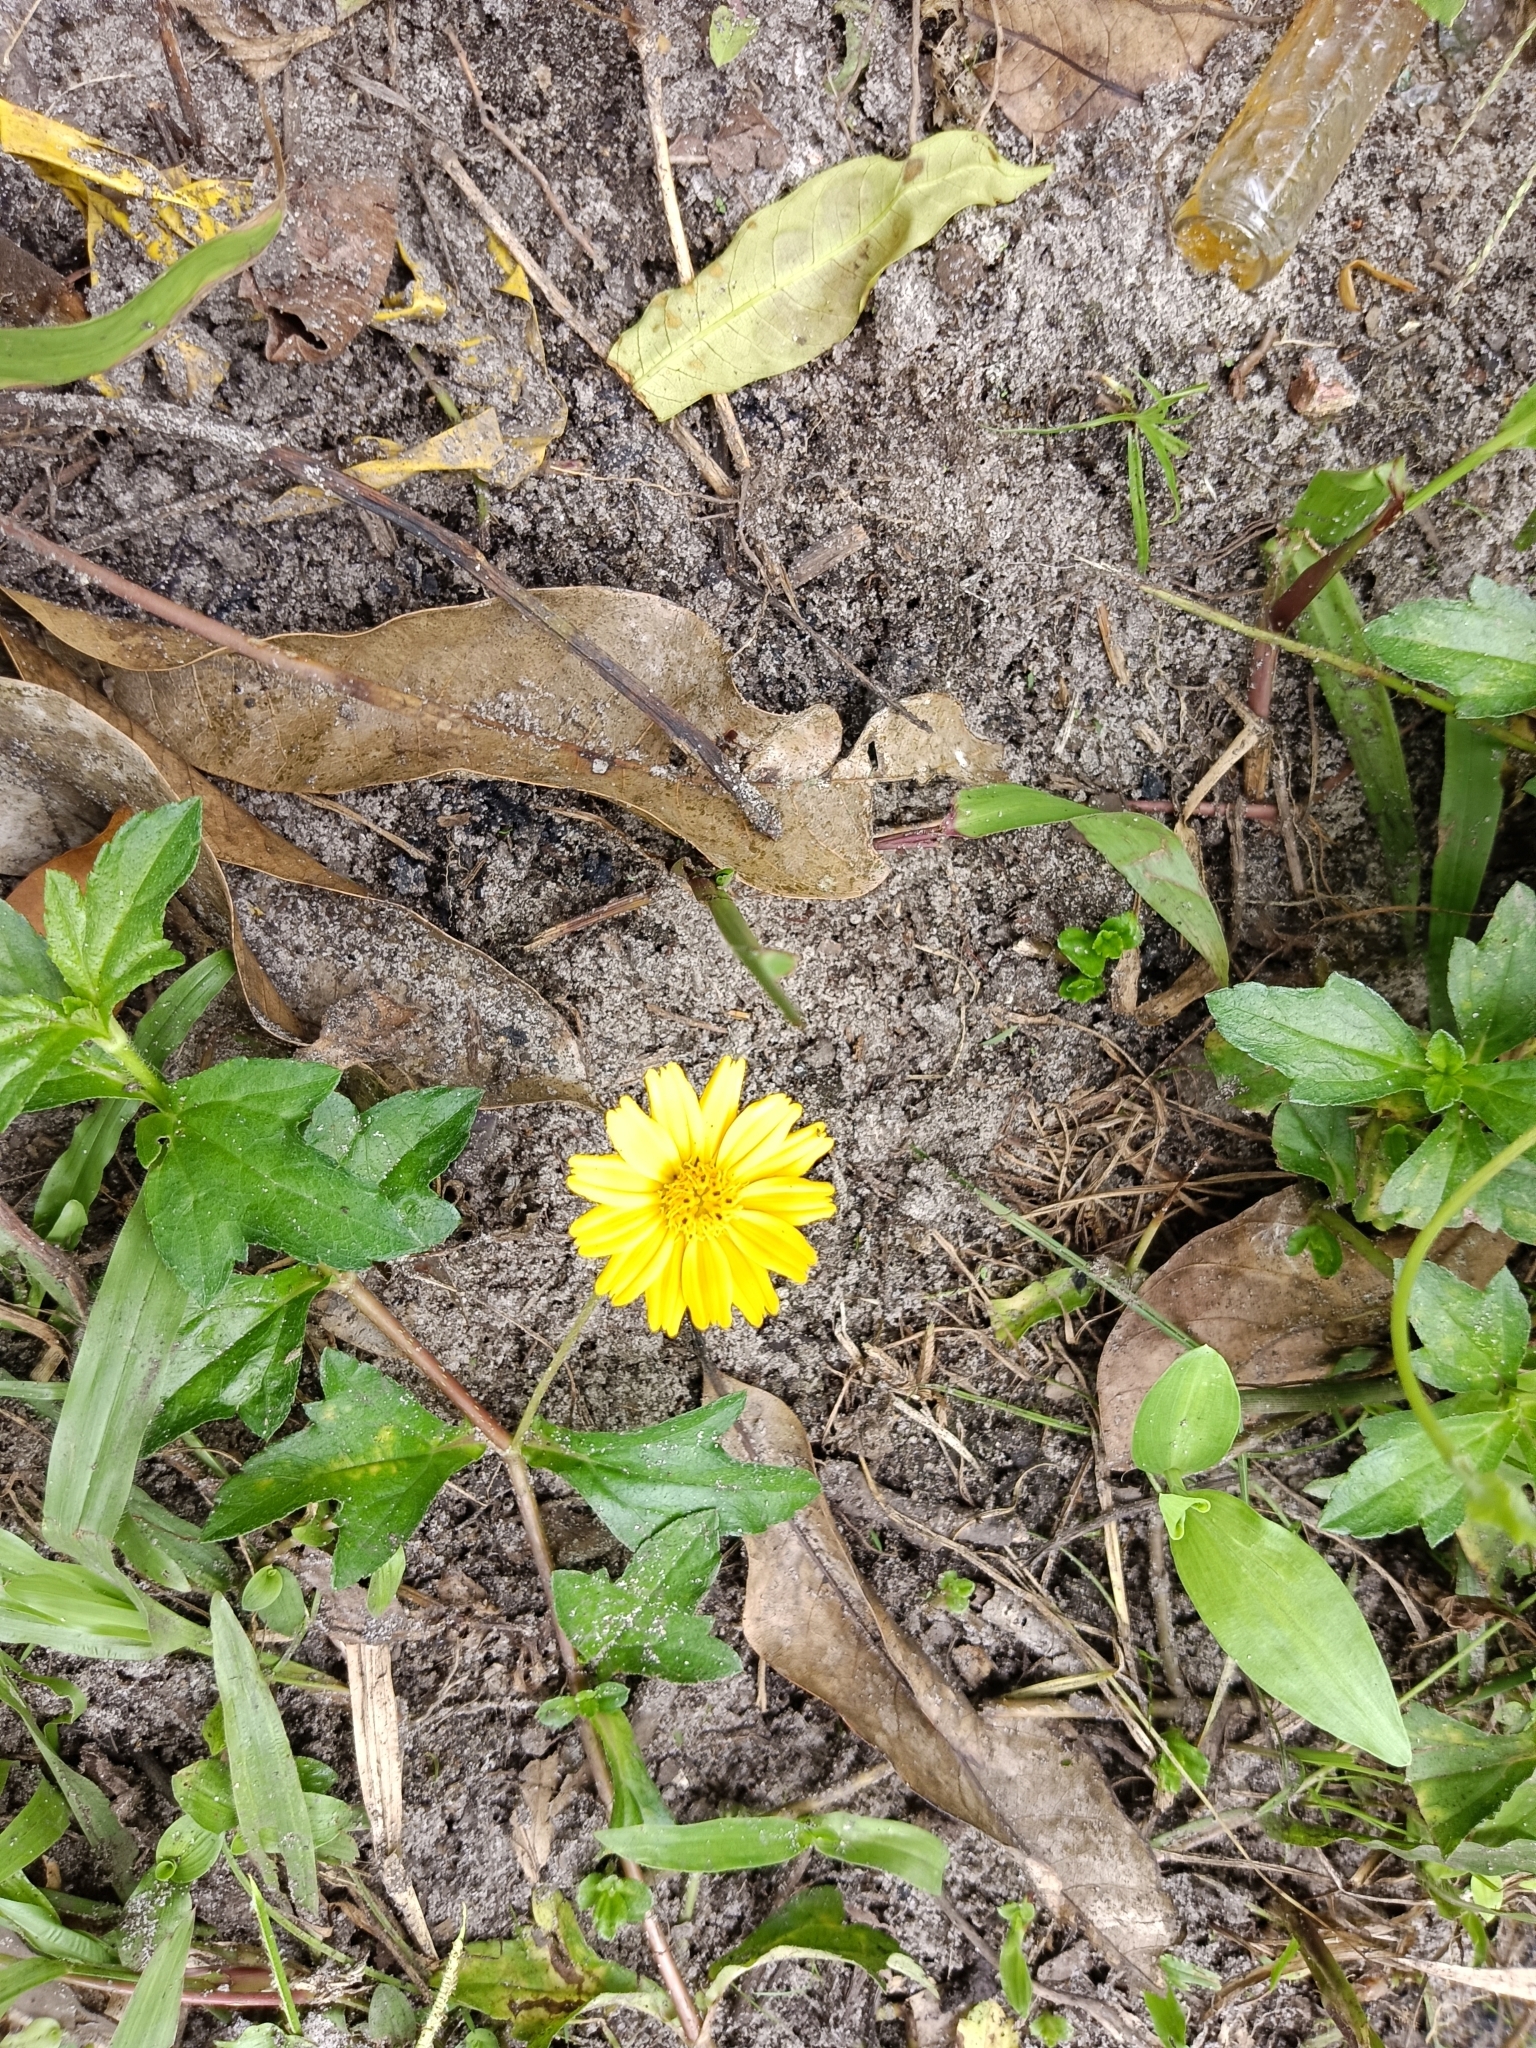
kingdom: Plantae
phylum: Tracheophyta
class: Magnoliopsida
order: Asterales
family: Asteraceae
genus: Sphagneticola
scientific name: Sphagneticola trilobata
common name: Bay biscayne creeping-oxeye
